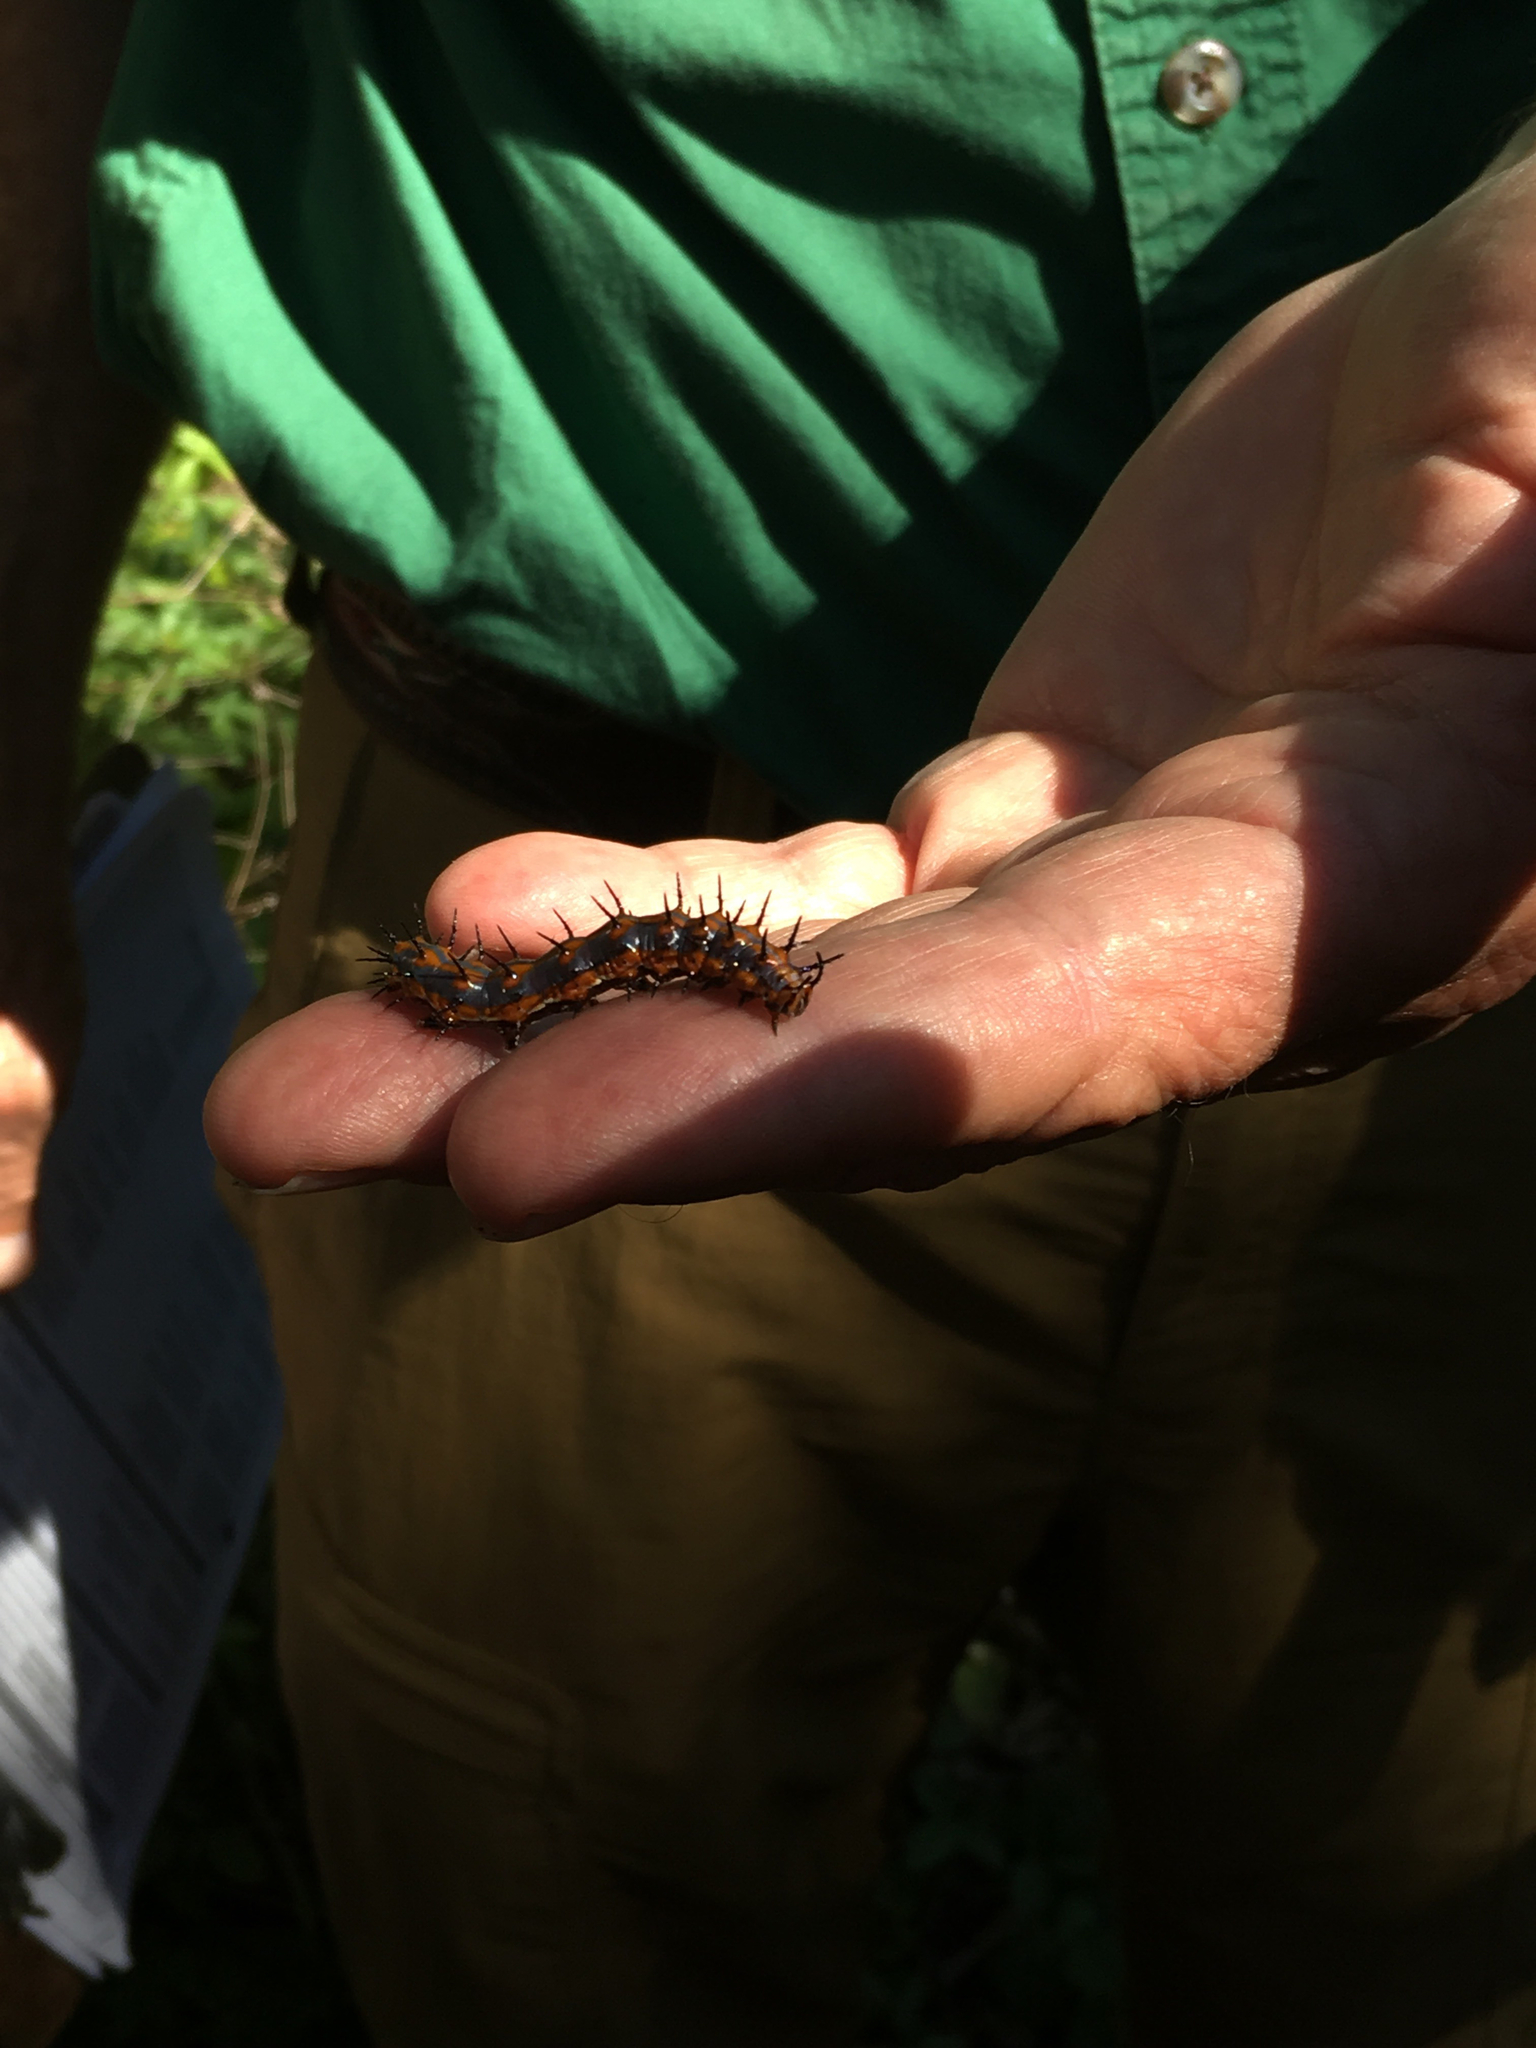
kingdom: Animalia
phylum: Arthropoda
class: Insecta
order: Lepidoptera
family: Nymphalidae
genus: Dione
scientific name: Dione vanillae
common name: Gulf fritillary
